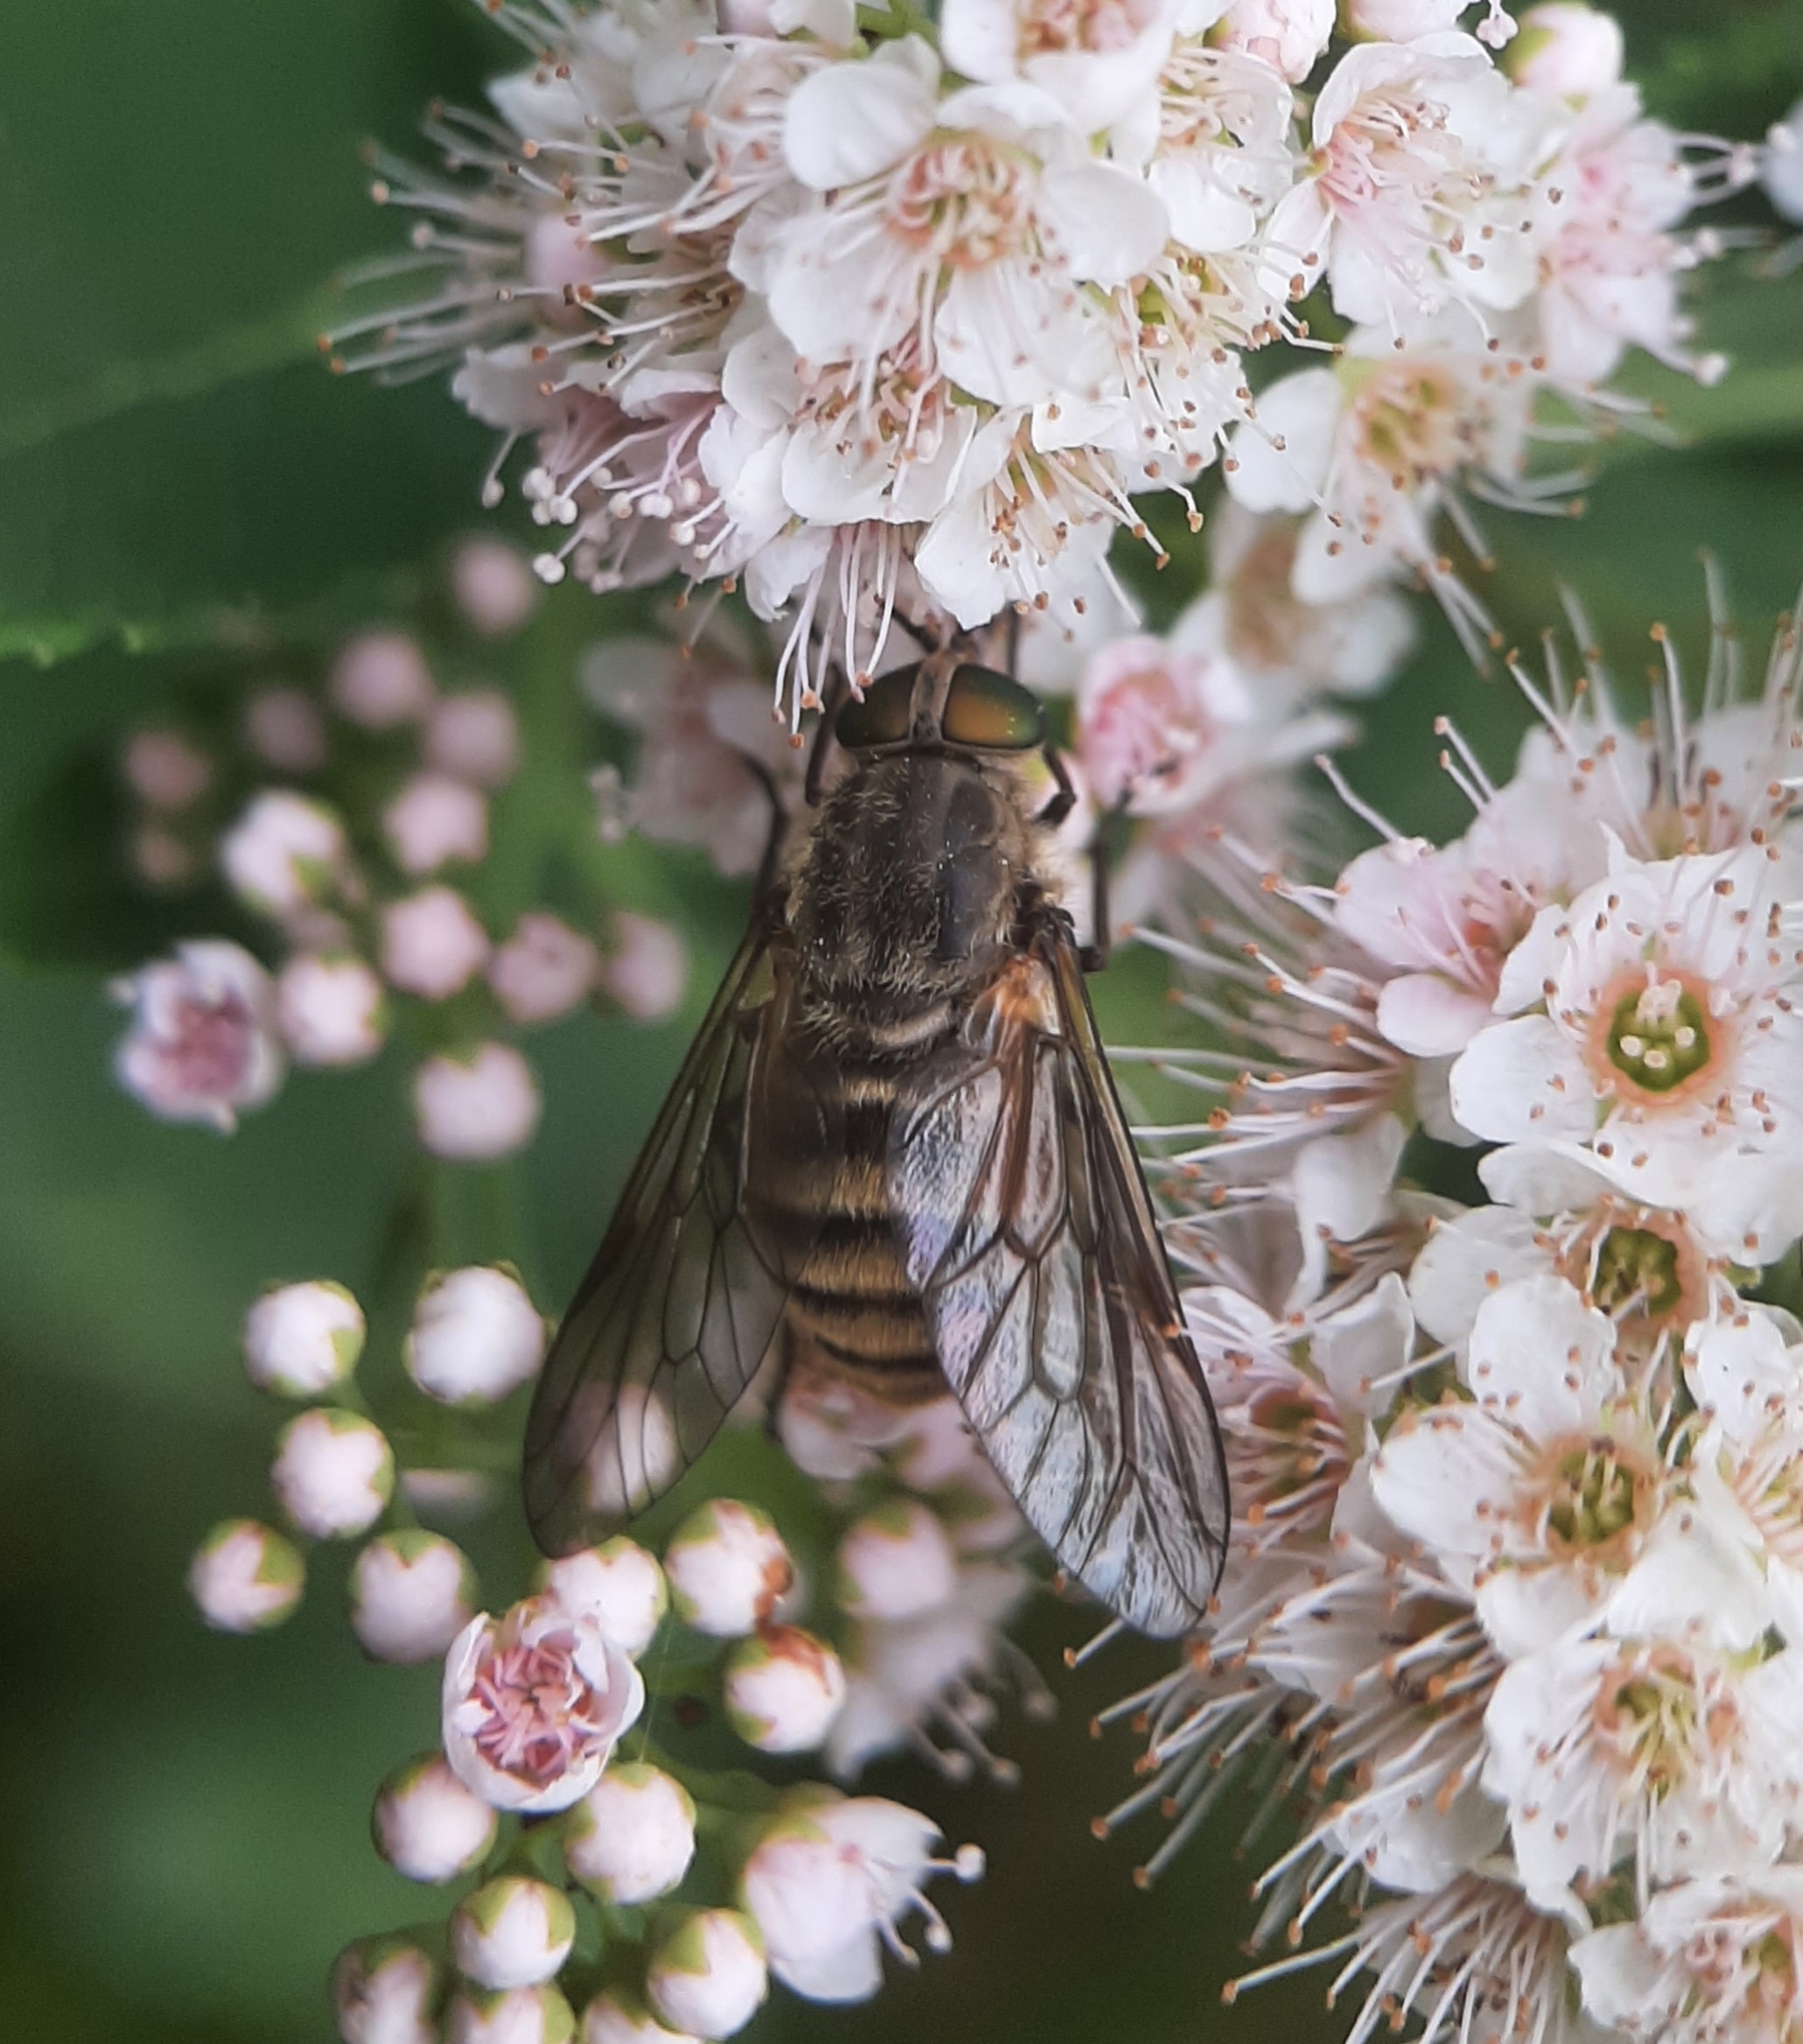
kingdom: Animalia
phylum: Arthropoda
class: Insecta
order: Diptera
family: Tabanidae
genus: Stonemyia
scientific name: Stonemyia tranquilla
